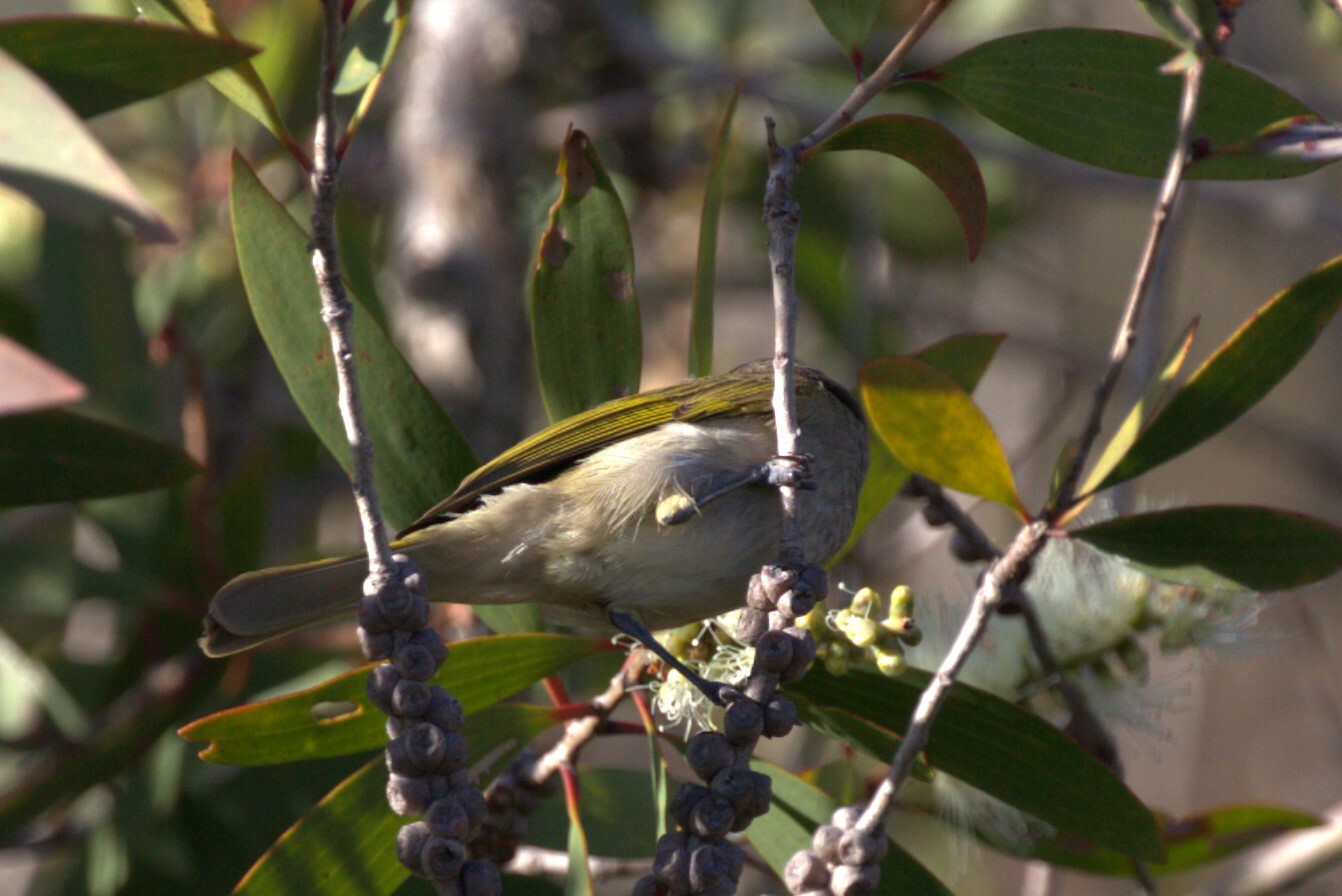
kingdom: Animalia
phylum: Chordata
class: Aves
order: Passeriformes
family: Meliphagidae
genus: Lichmera
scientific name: Lichmera indistincta
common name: Brown honeyeater
